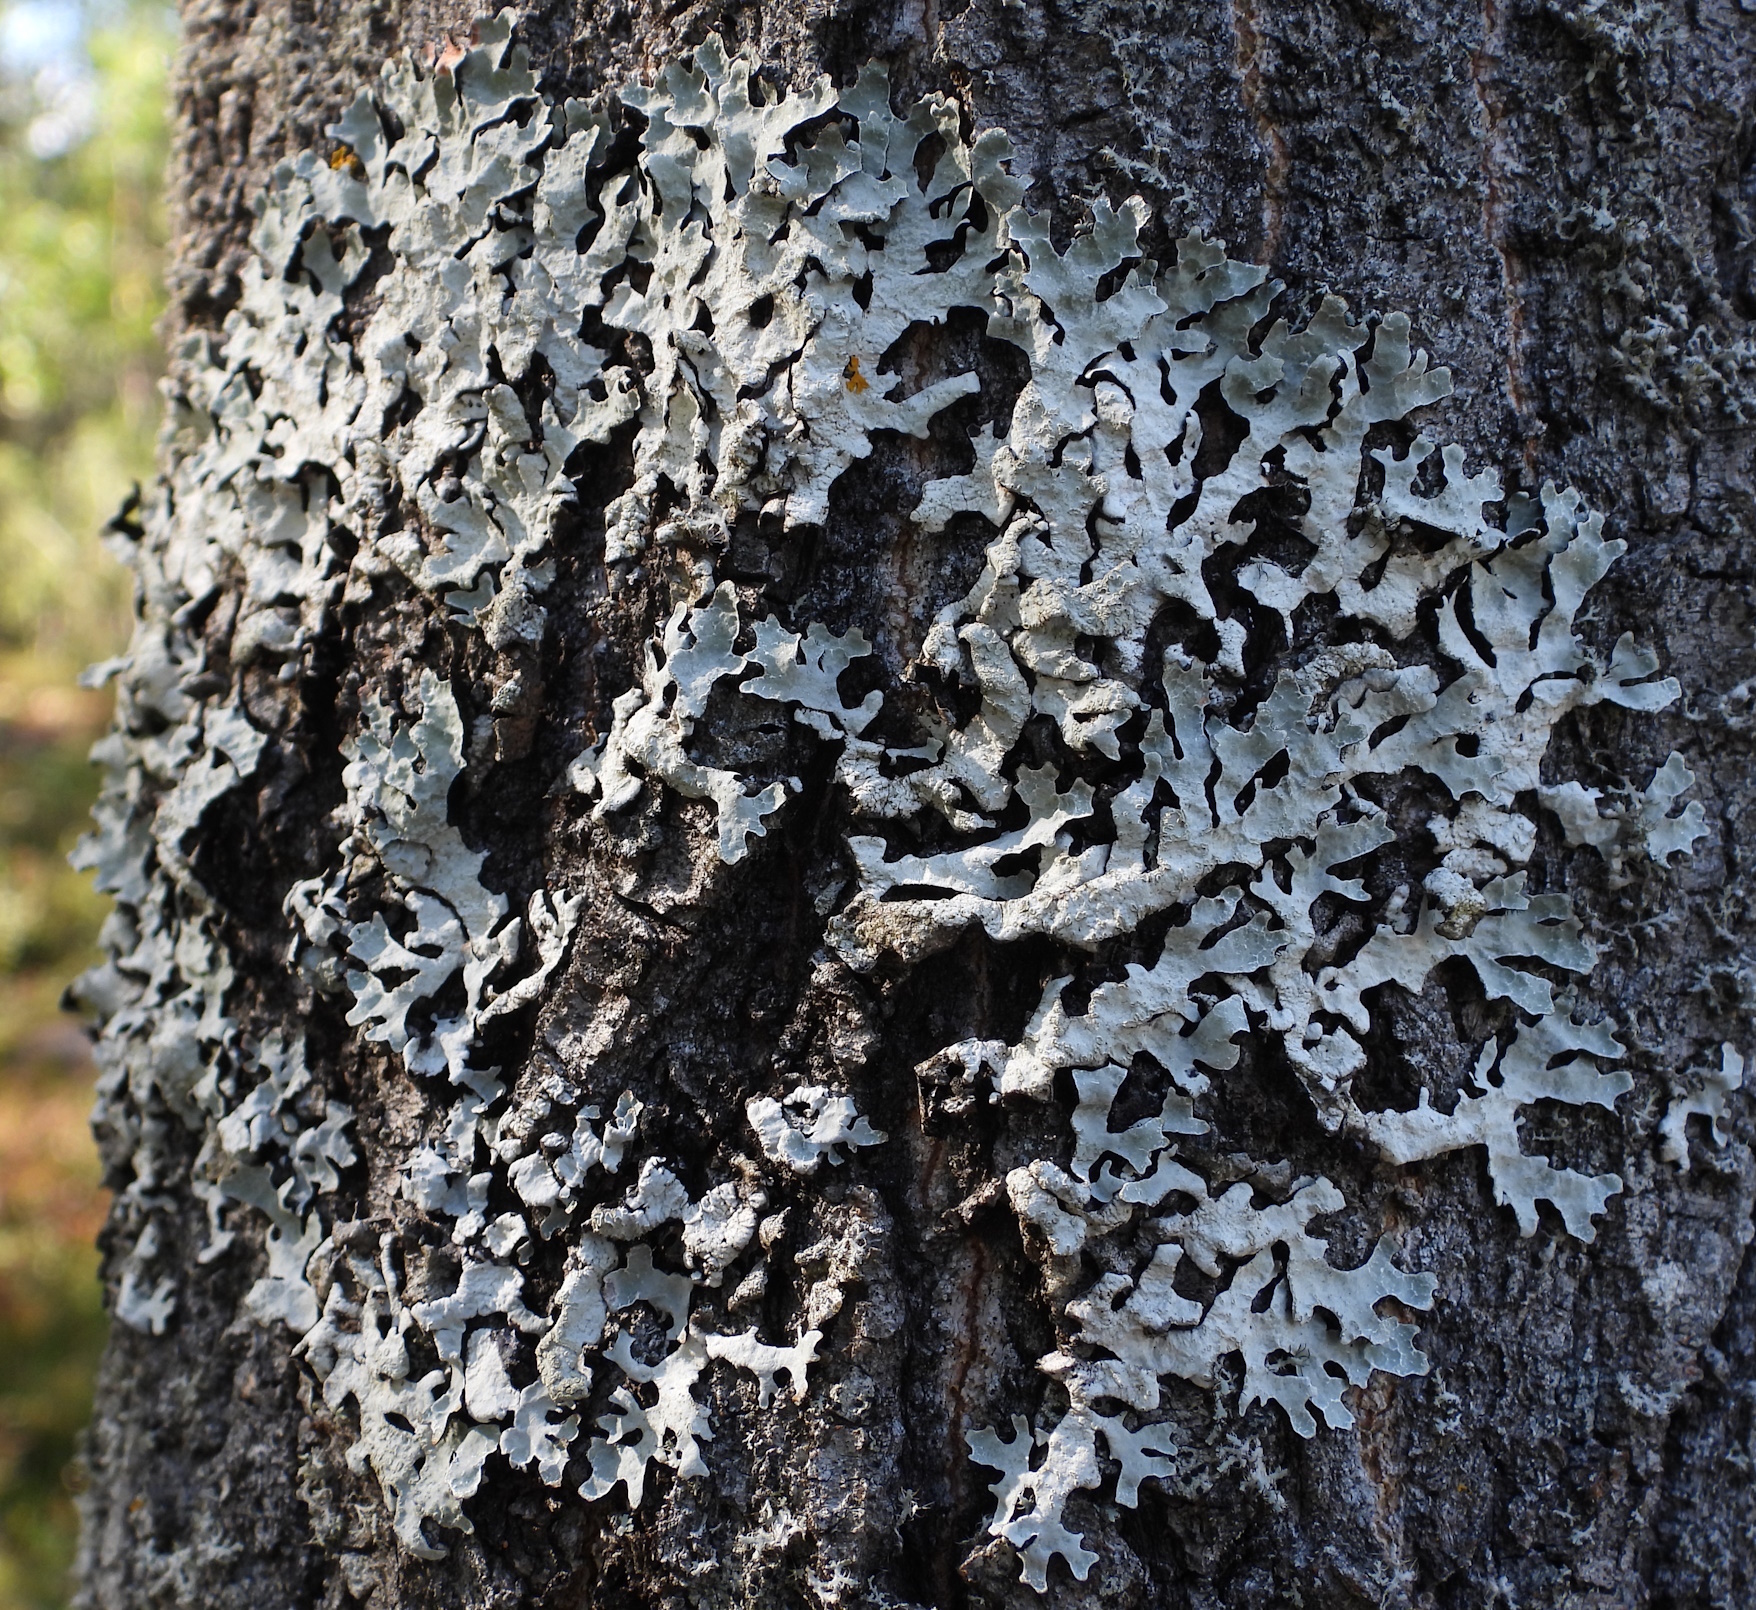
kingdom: Fungi
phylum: Ascomycota
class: Lecanoromycetes
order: Lecanorales
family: Parmeliaceae
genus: Parmelia
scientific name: Parmelia sulcata
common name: Netted shield lichen
